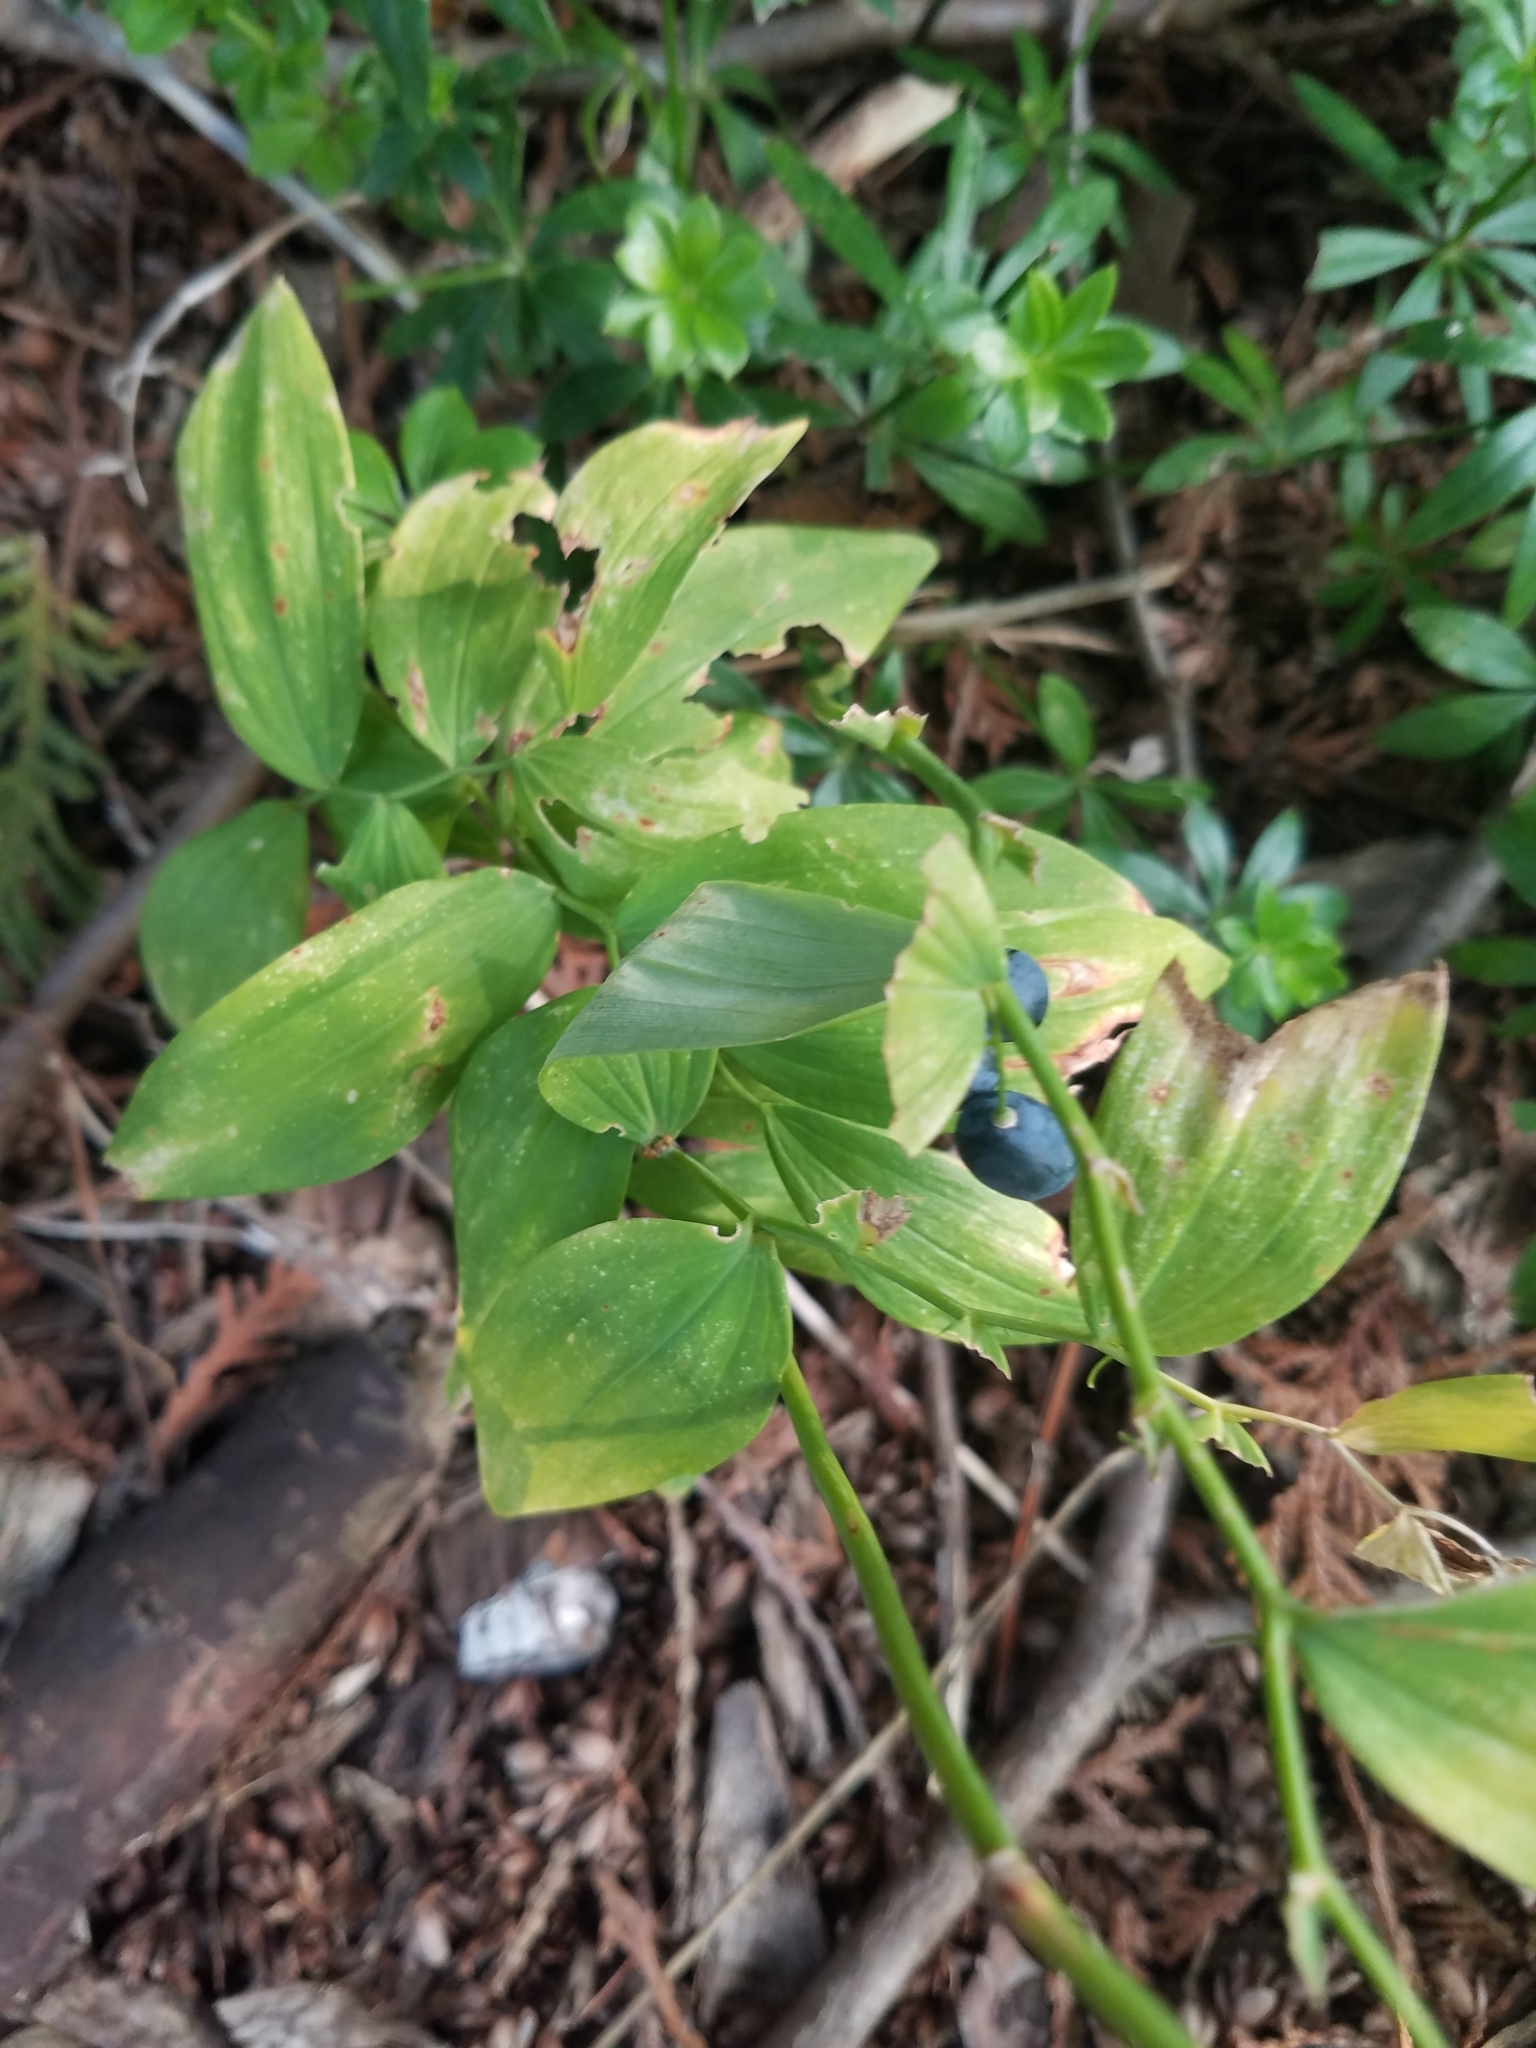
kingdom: Plantae
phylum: Tracheophyta
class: Liliopsida
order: Asparagales
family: Asparagaceae
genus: Polygonatum
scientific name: Polygonatum biflorum
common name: American solomon's-seal
